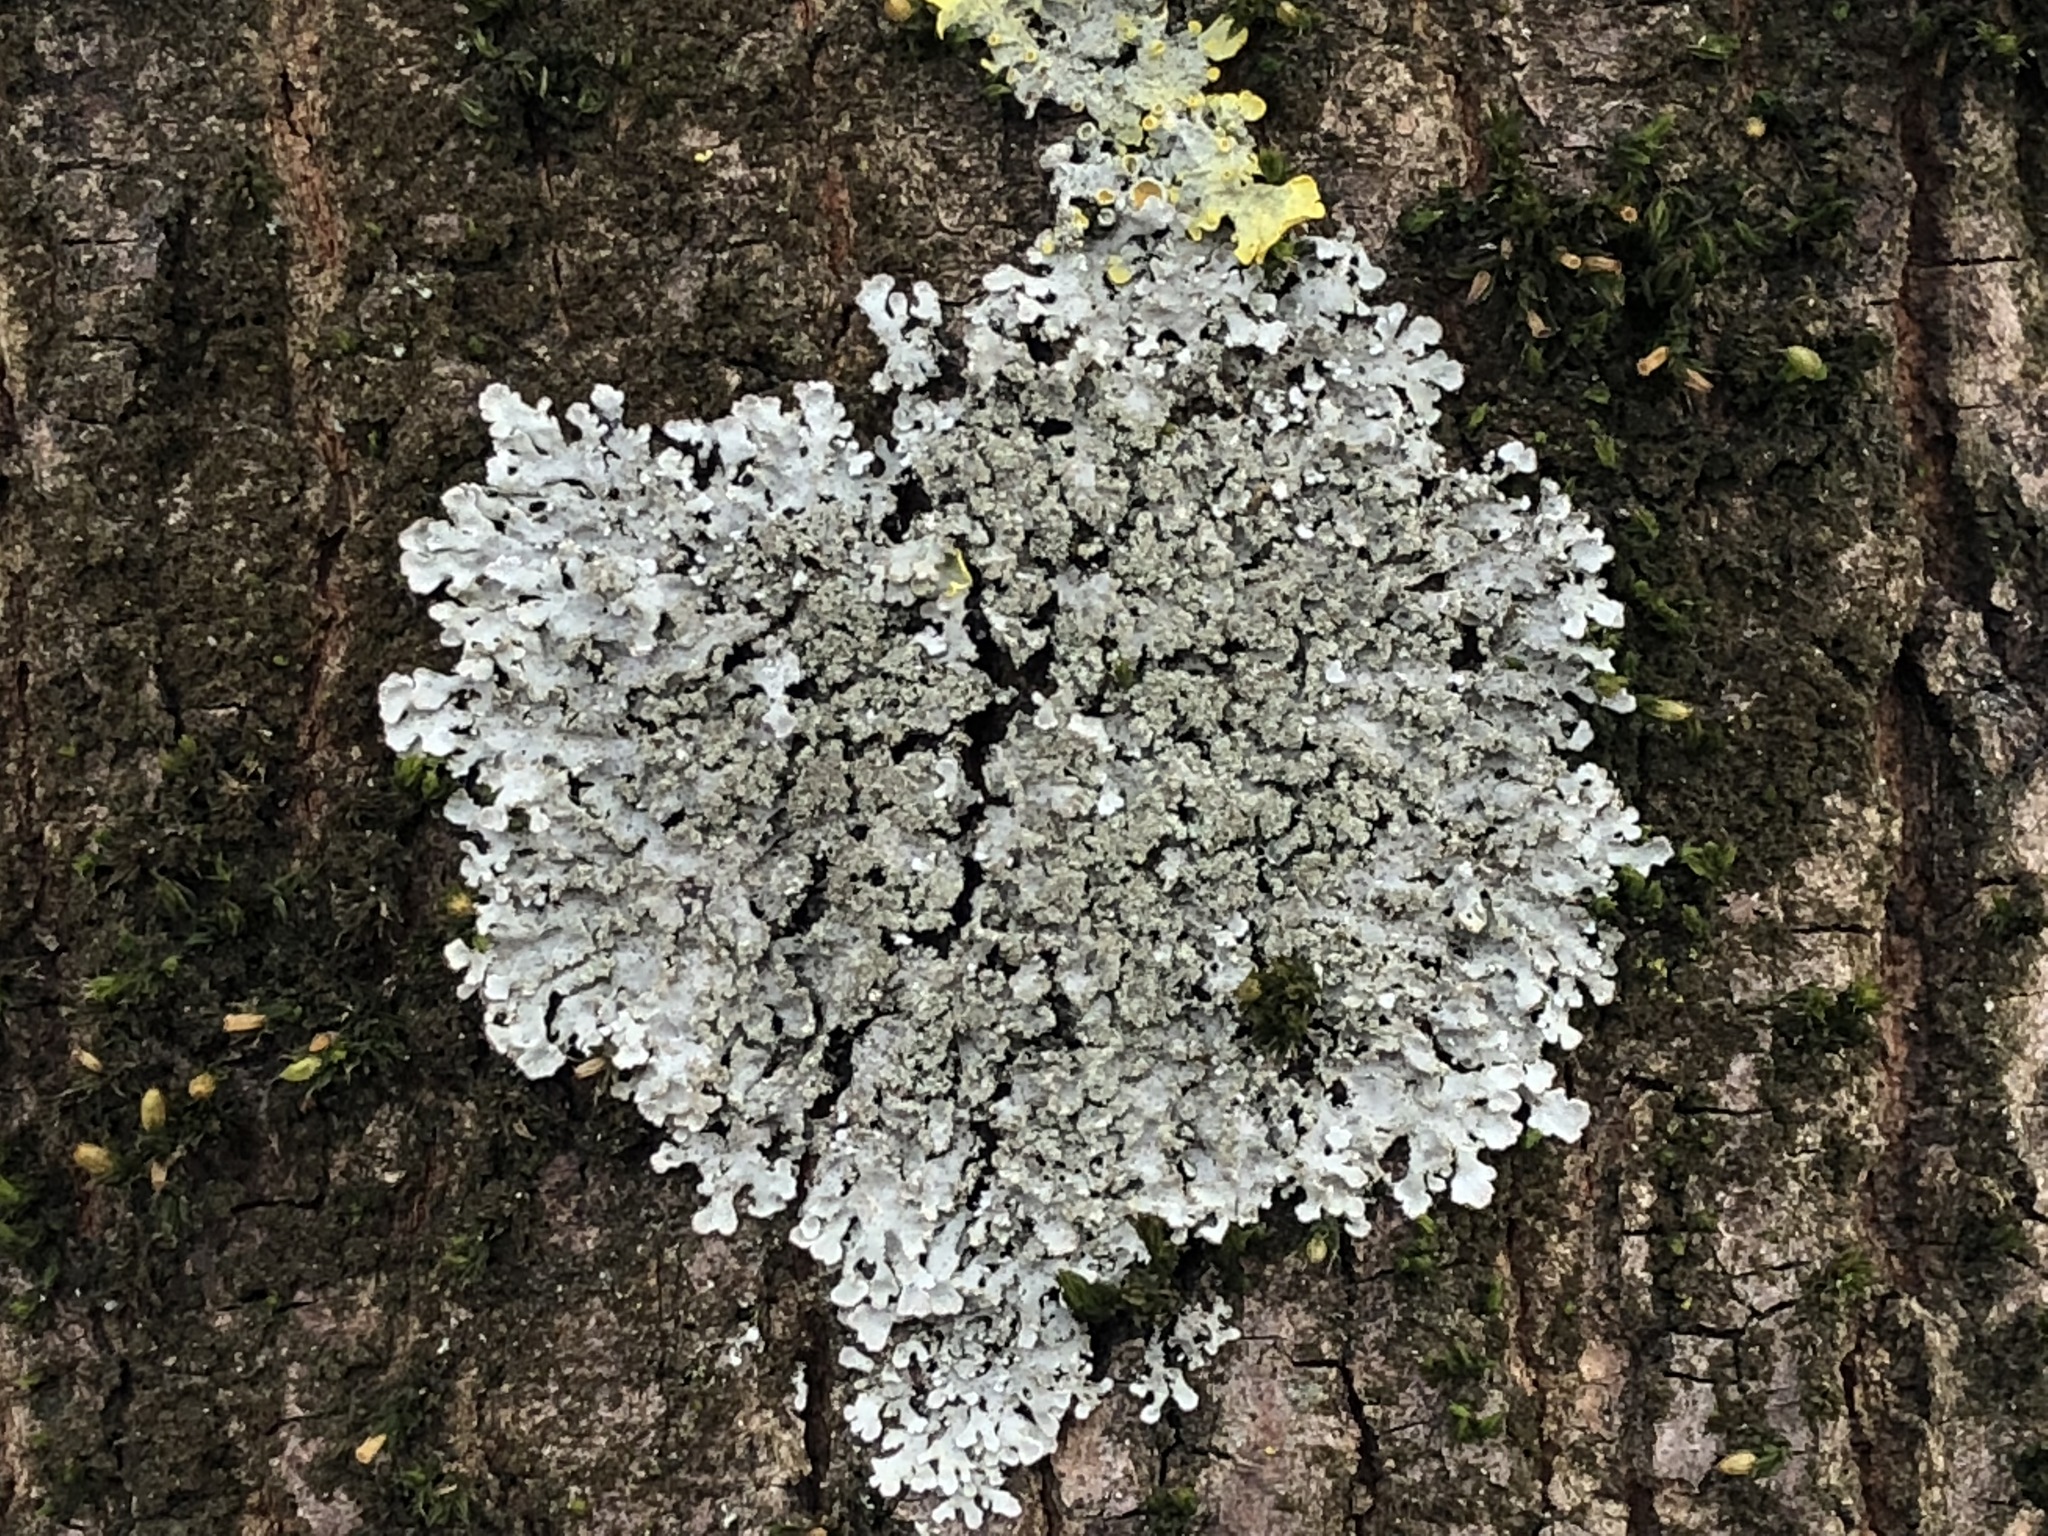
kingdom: Fungi
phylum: Ascomycota
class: Lecanoromycetes
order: Lecanorales
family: Parmeliaceae
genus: Parmelia
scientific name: Parmelia saxatilis
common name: Salted shield lichen
